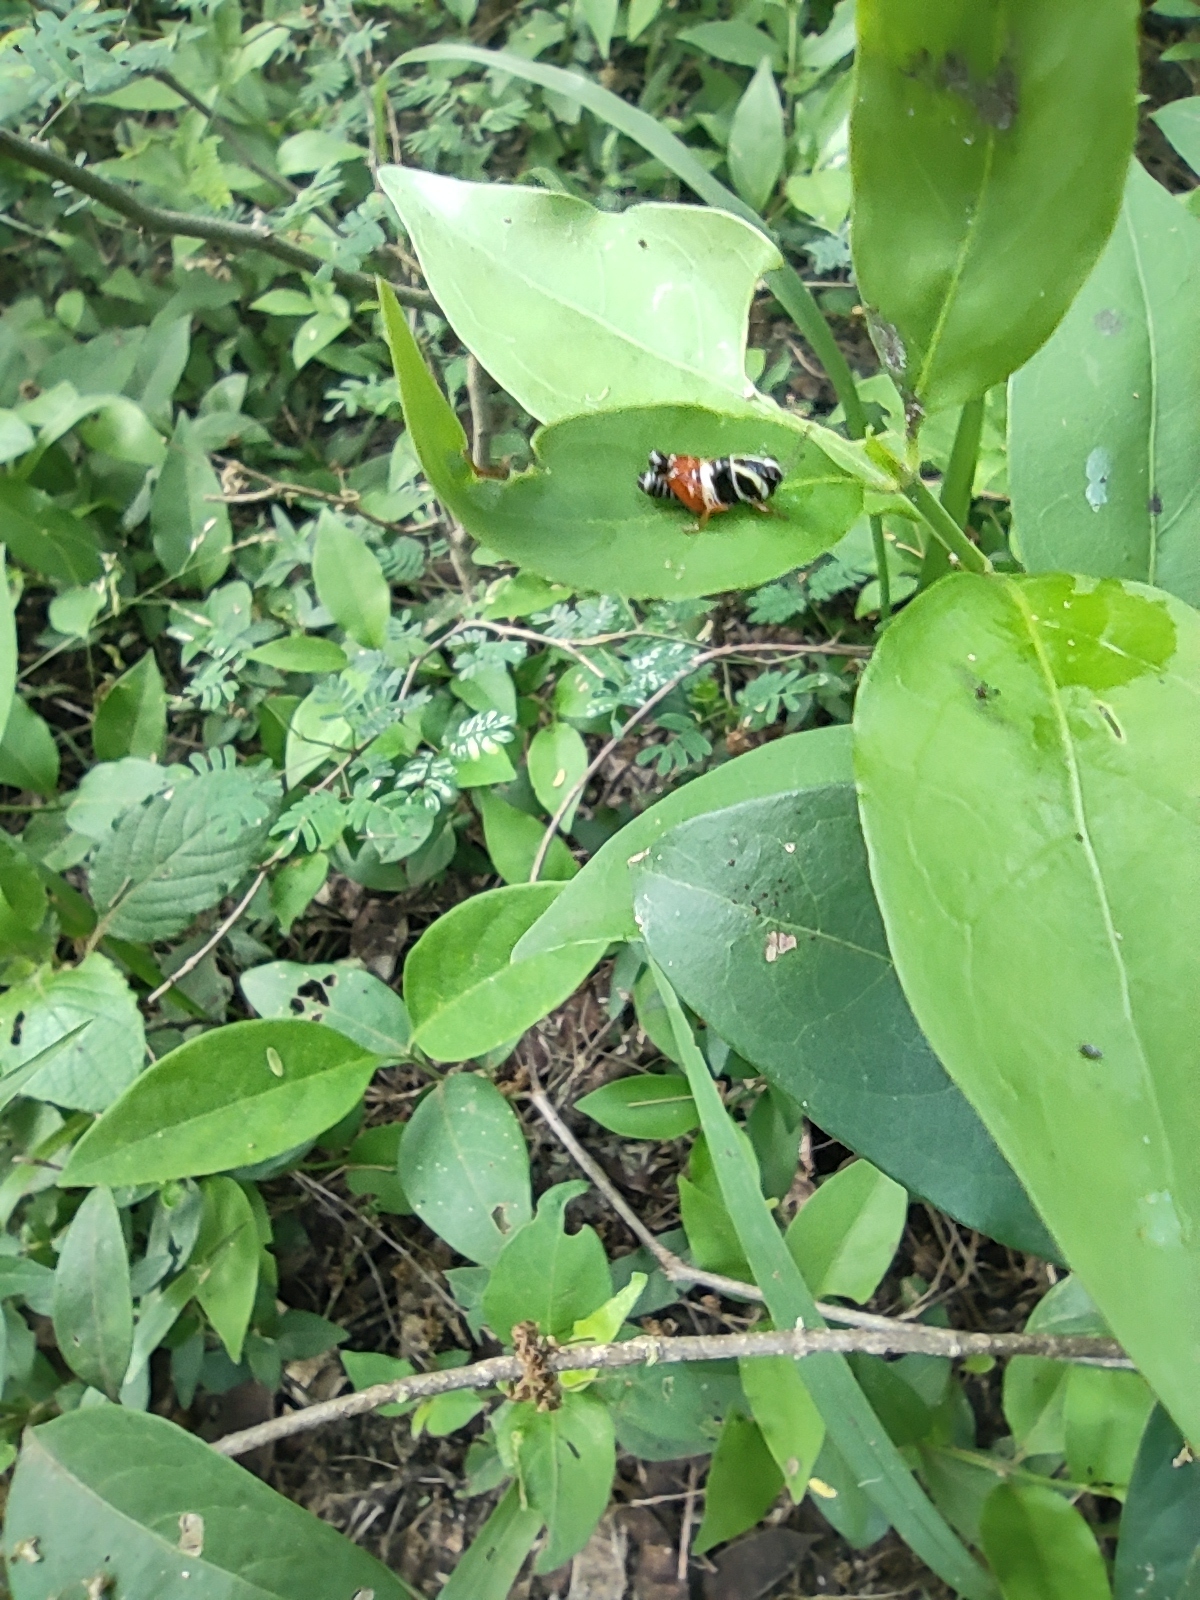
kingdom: Animalia
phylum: Arthropoda
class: Insecta
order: Orthoptera
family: Acrididae
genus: Aidemona
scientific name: Aidemona azteca
